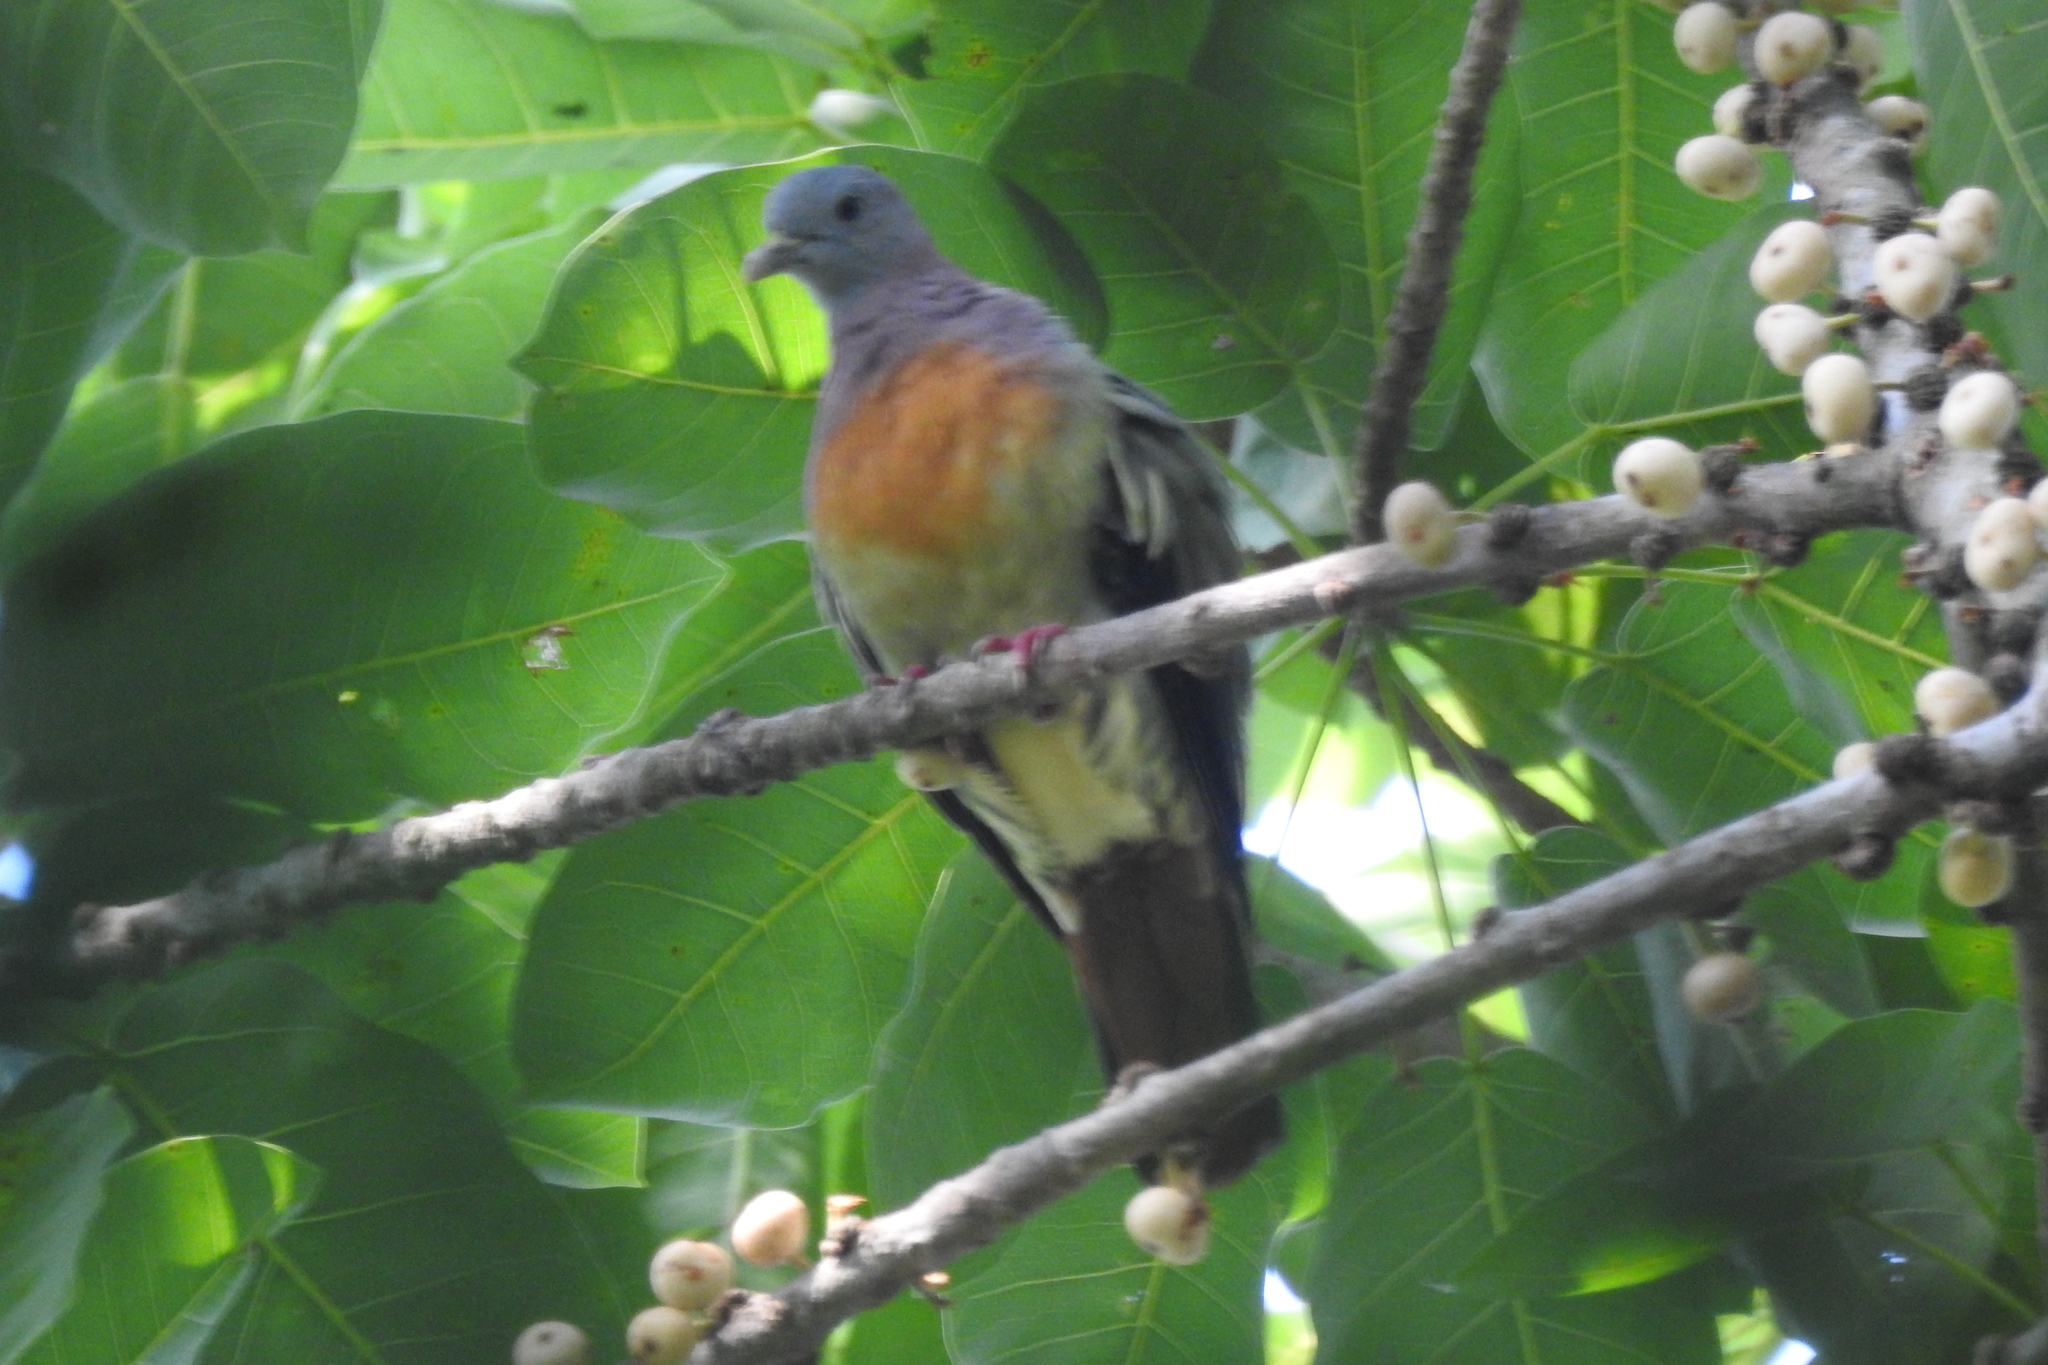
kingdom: Animalia
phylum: Chordata
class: Aves
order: Columbiformes
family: Columbidae
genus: Treron
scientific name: Treron vernans
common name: Pink-necked green pigeon
